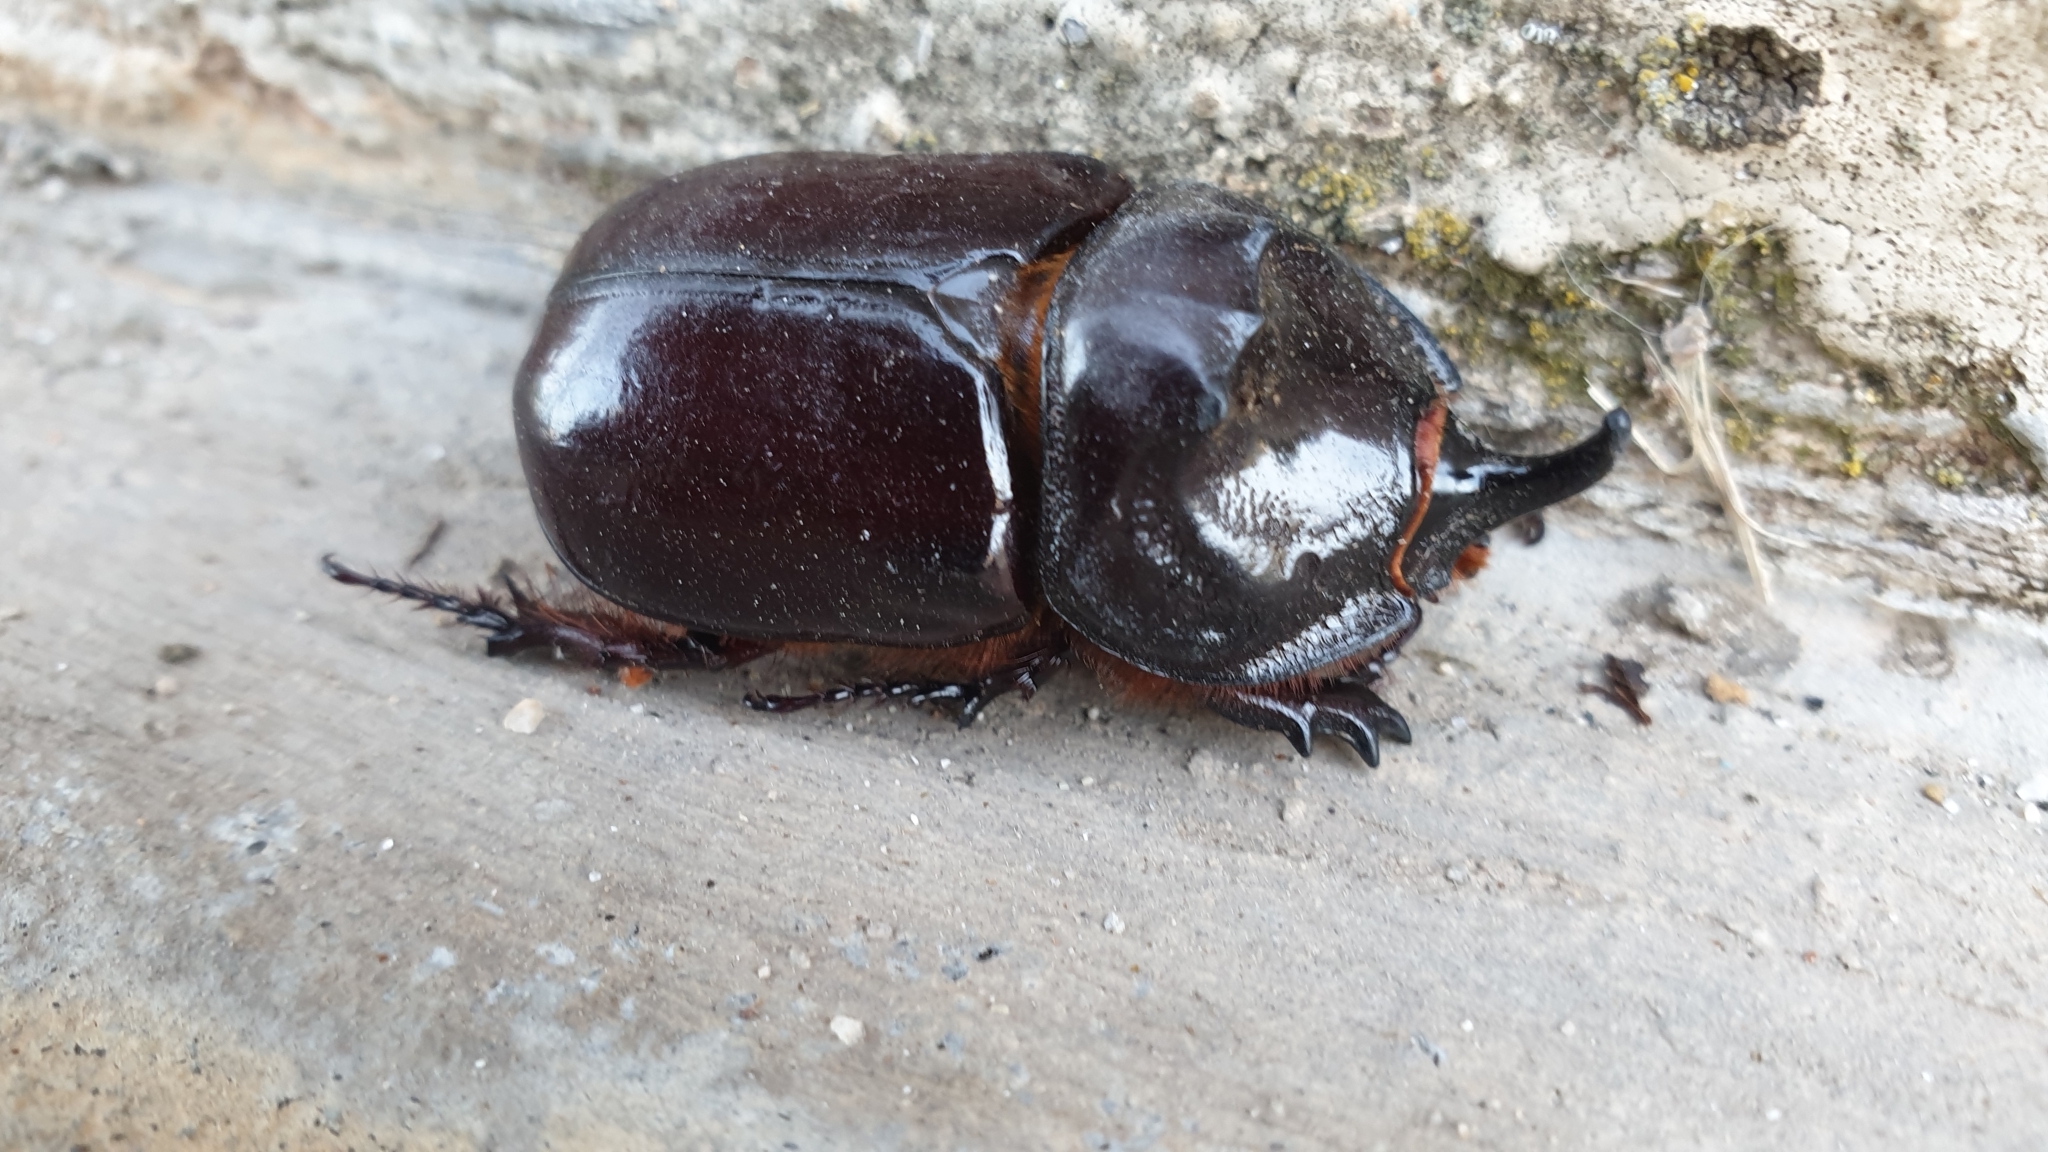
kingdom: Animalia
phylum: Arthropoda
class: Insecta
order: Coleoptera
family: Scarabaeidae
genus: Oryctes
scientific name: Oryctes nasicornis
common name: European rhinoceros beetle
